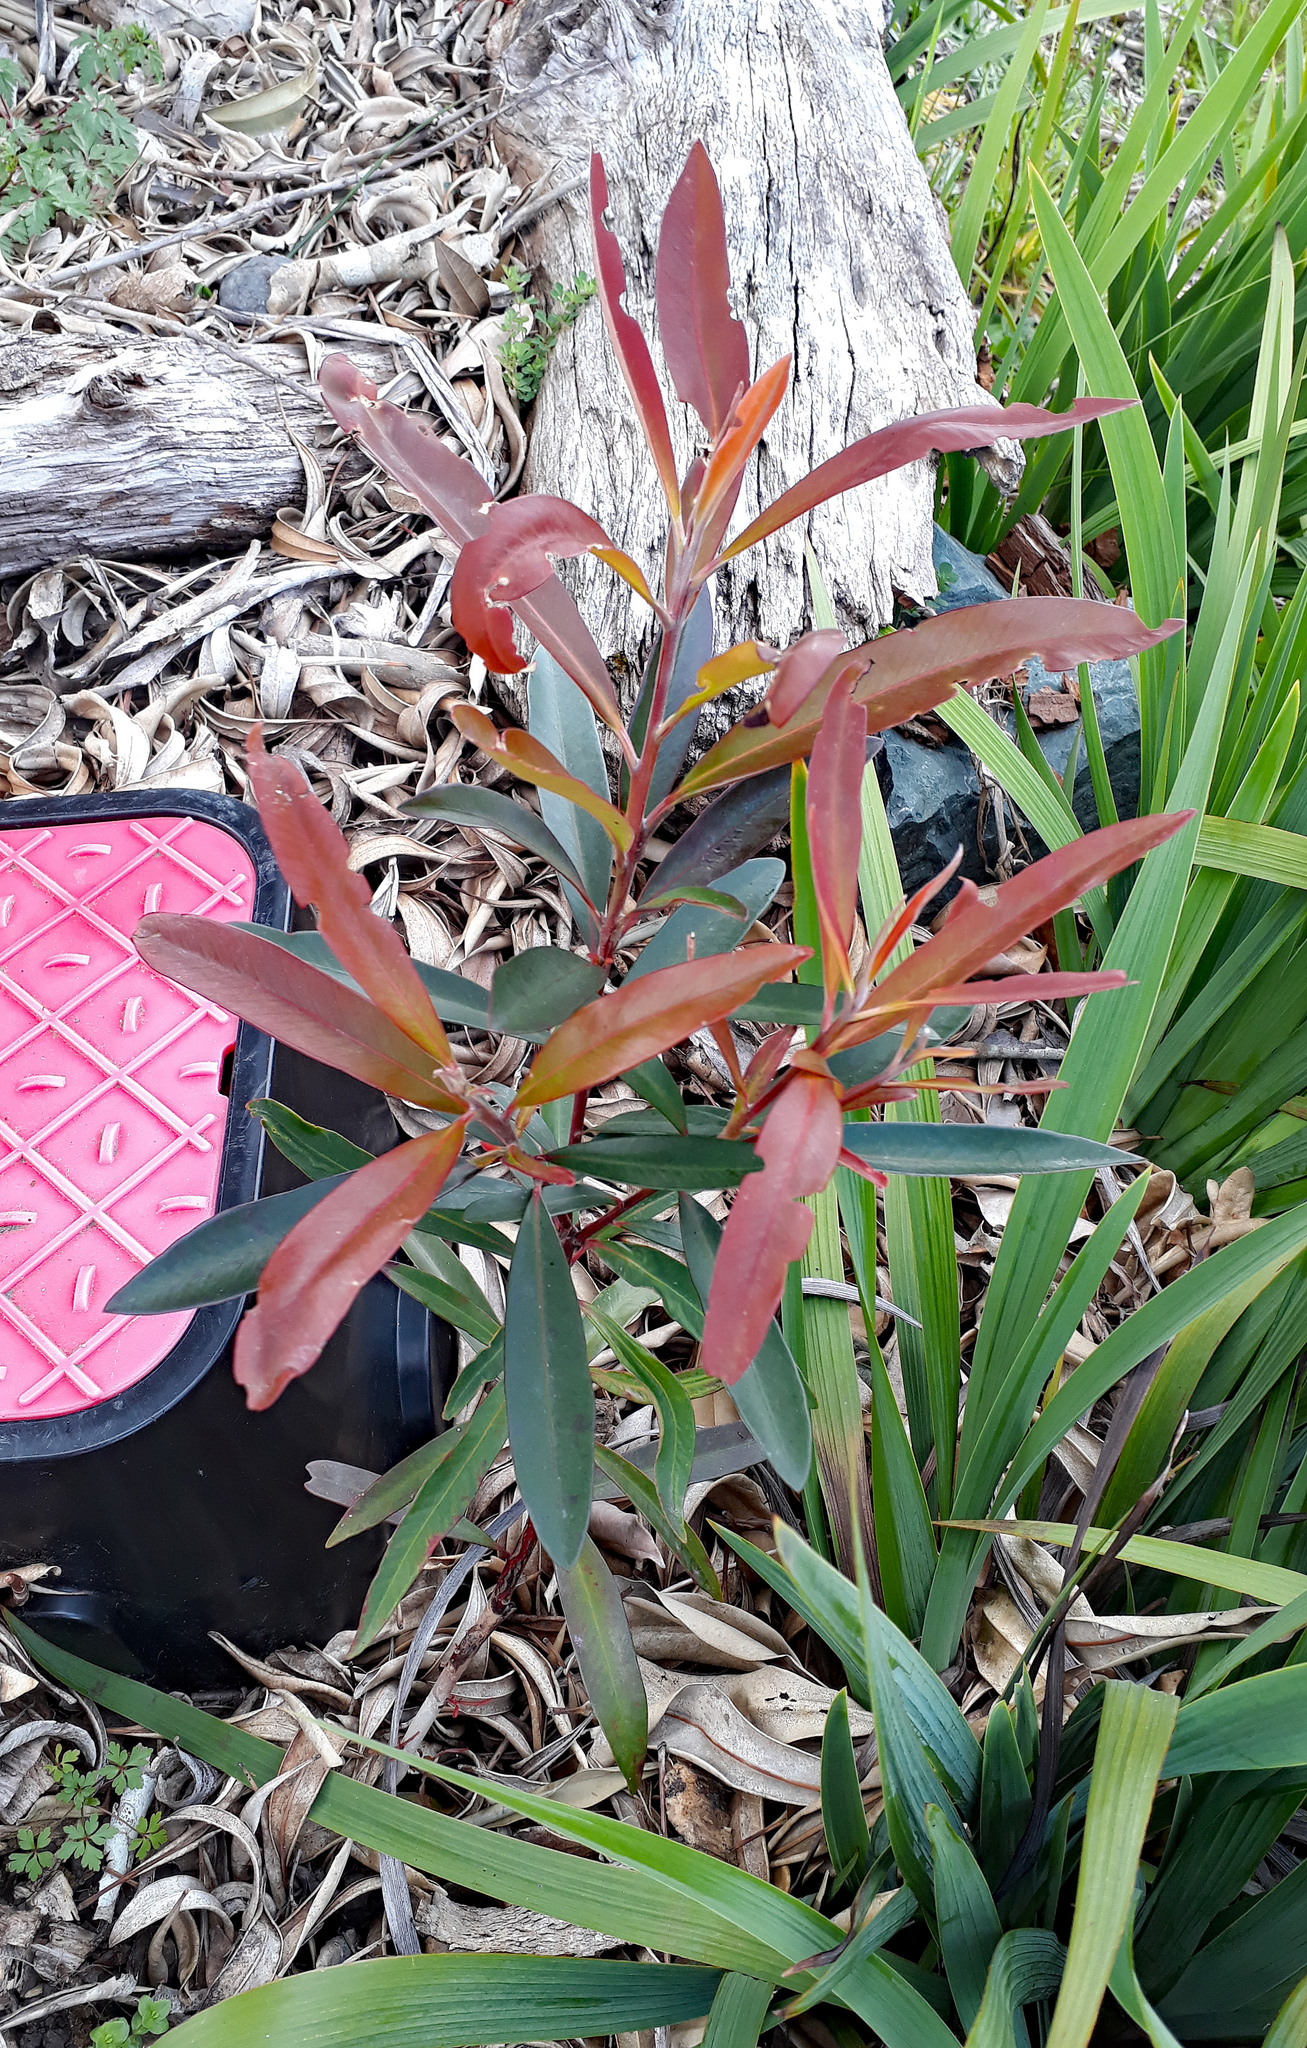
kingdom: Plantae
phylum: Tracheophyta
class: Magnoliopsida
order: Myrtales
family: Myrtaceae
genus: Tristaniopsis
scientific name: Tristaniopsis laurina
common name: Water-gum
